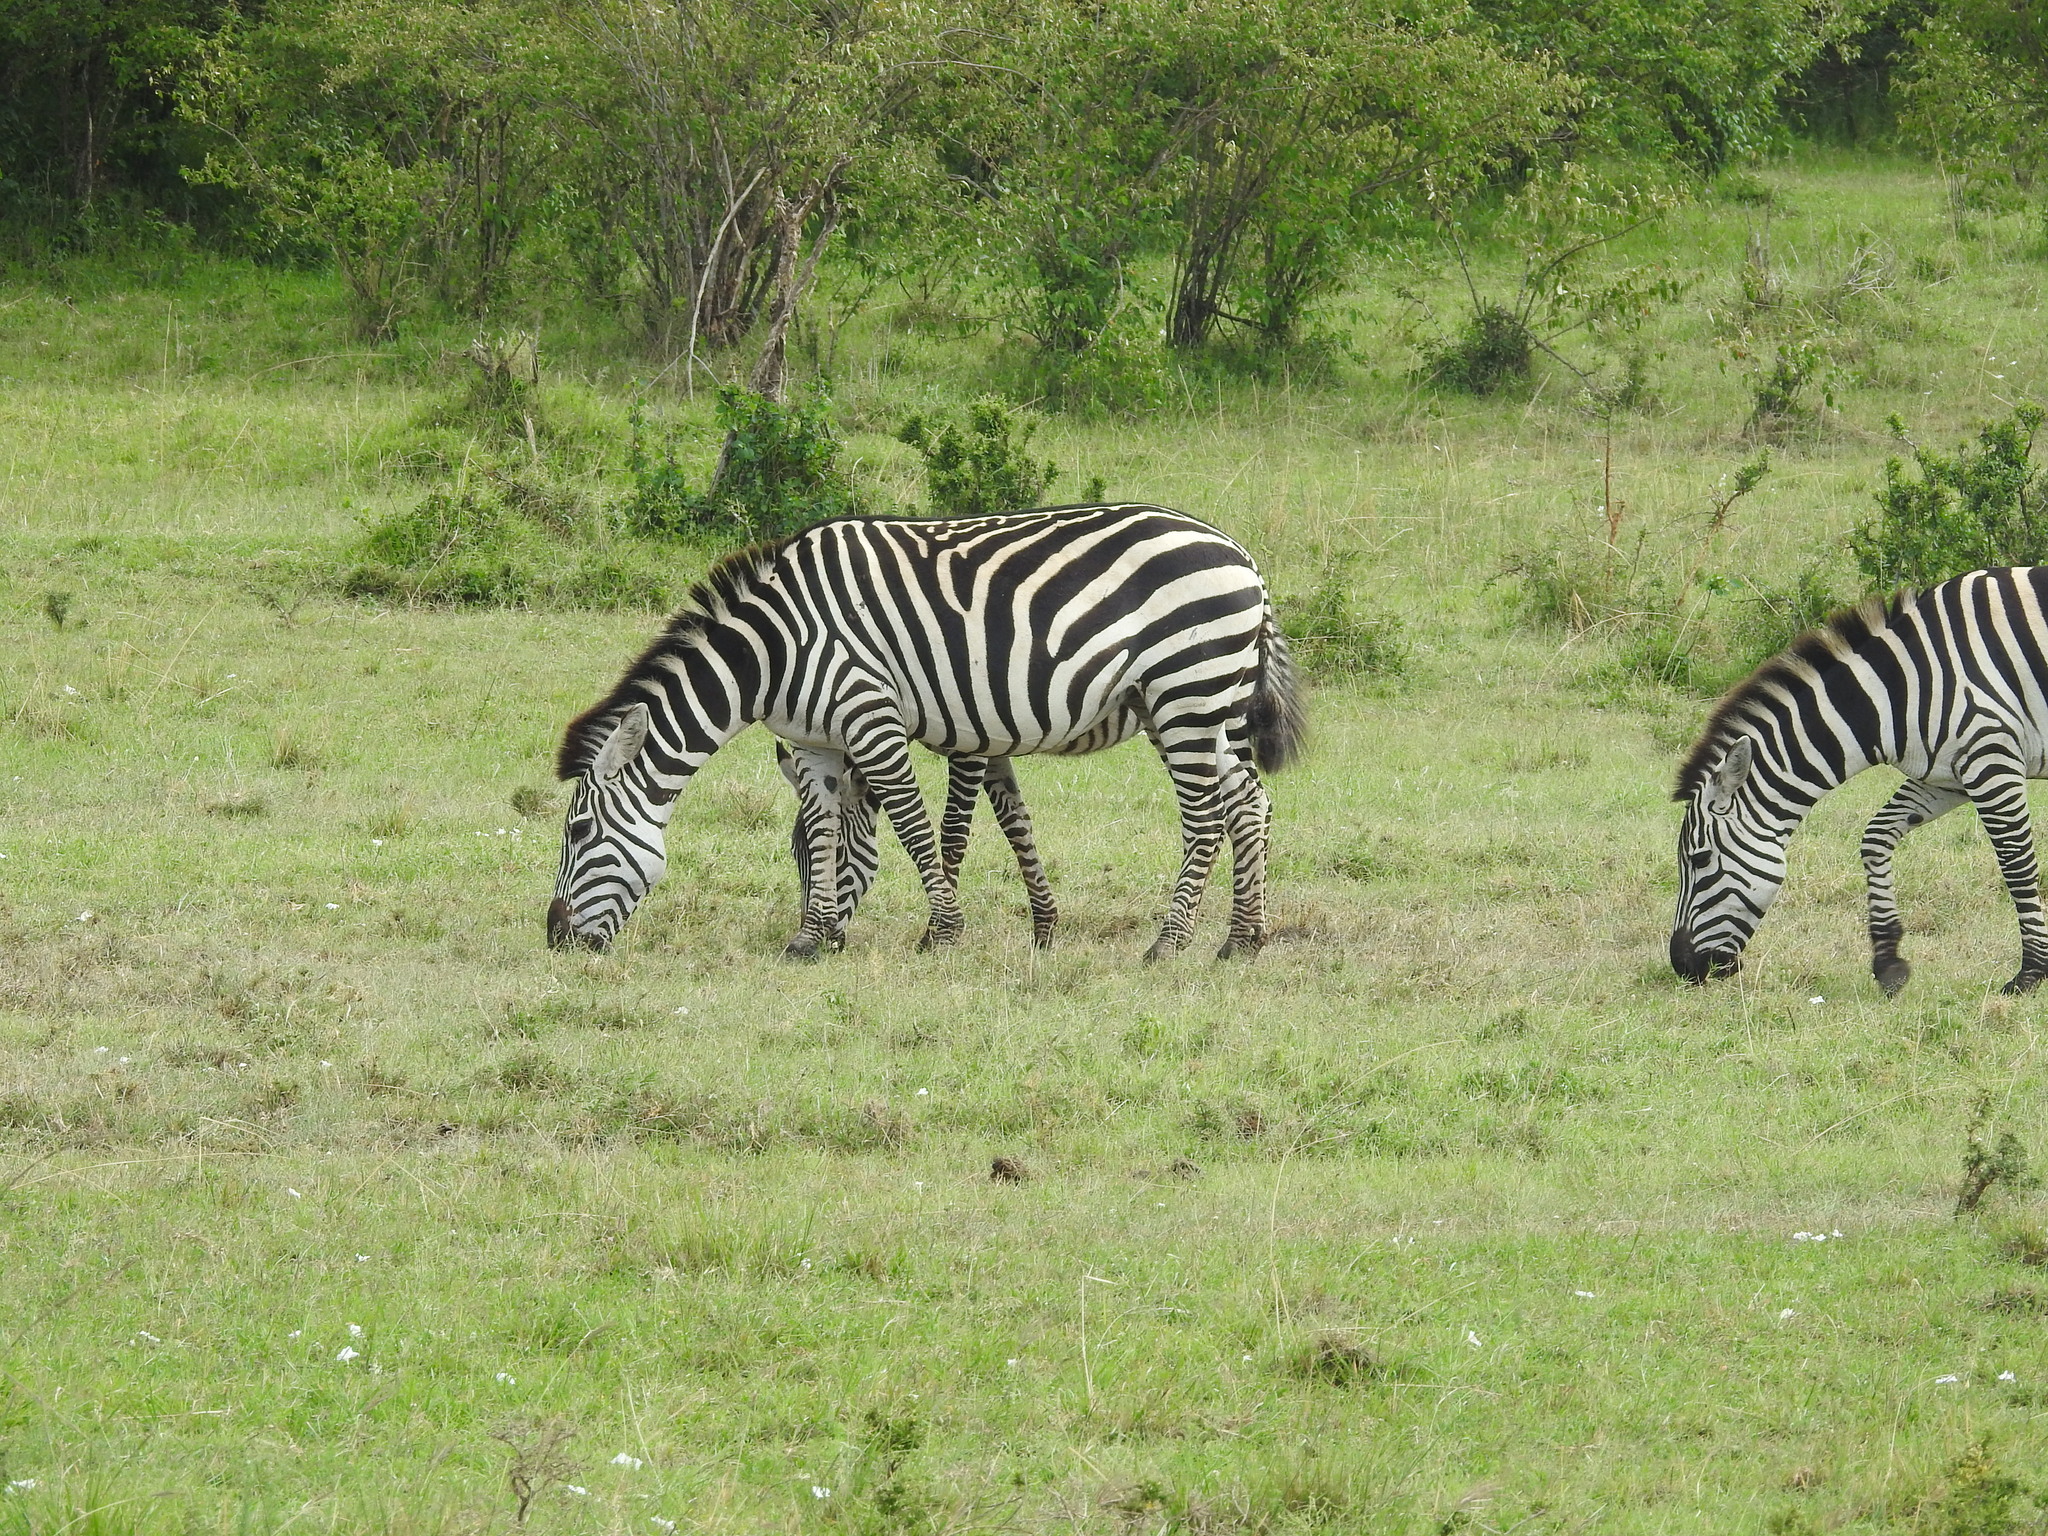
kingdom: Animalia
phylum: Chordata
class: Mammalia
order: Perissodactyla
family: Equidae
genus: Equus
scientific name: Equus quagga
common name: Plains zebra
